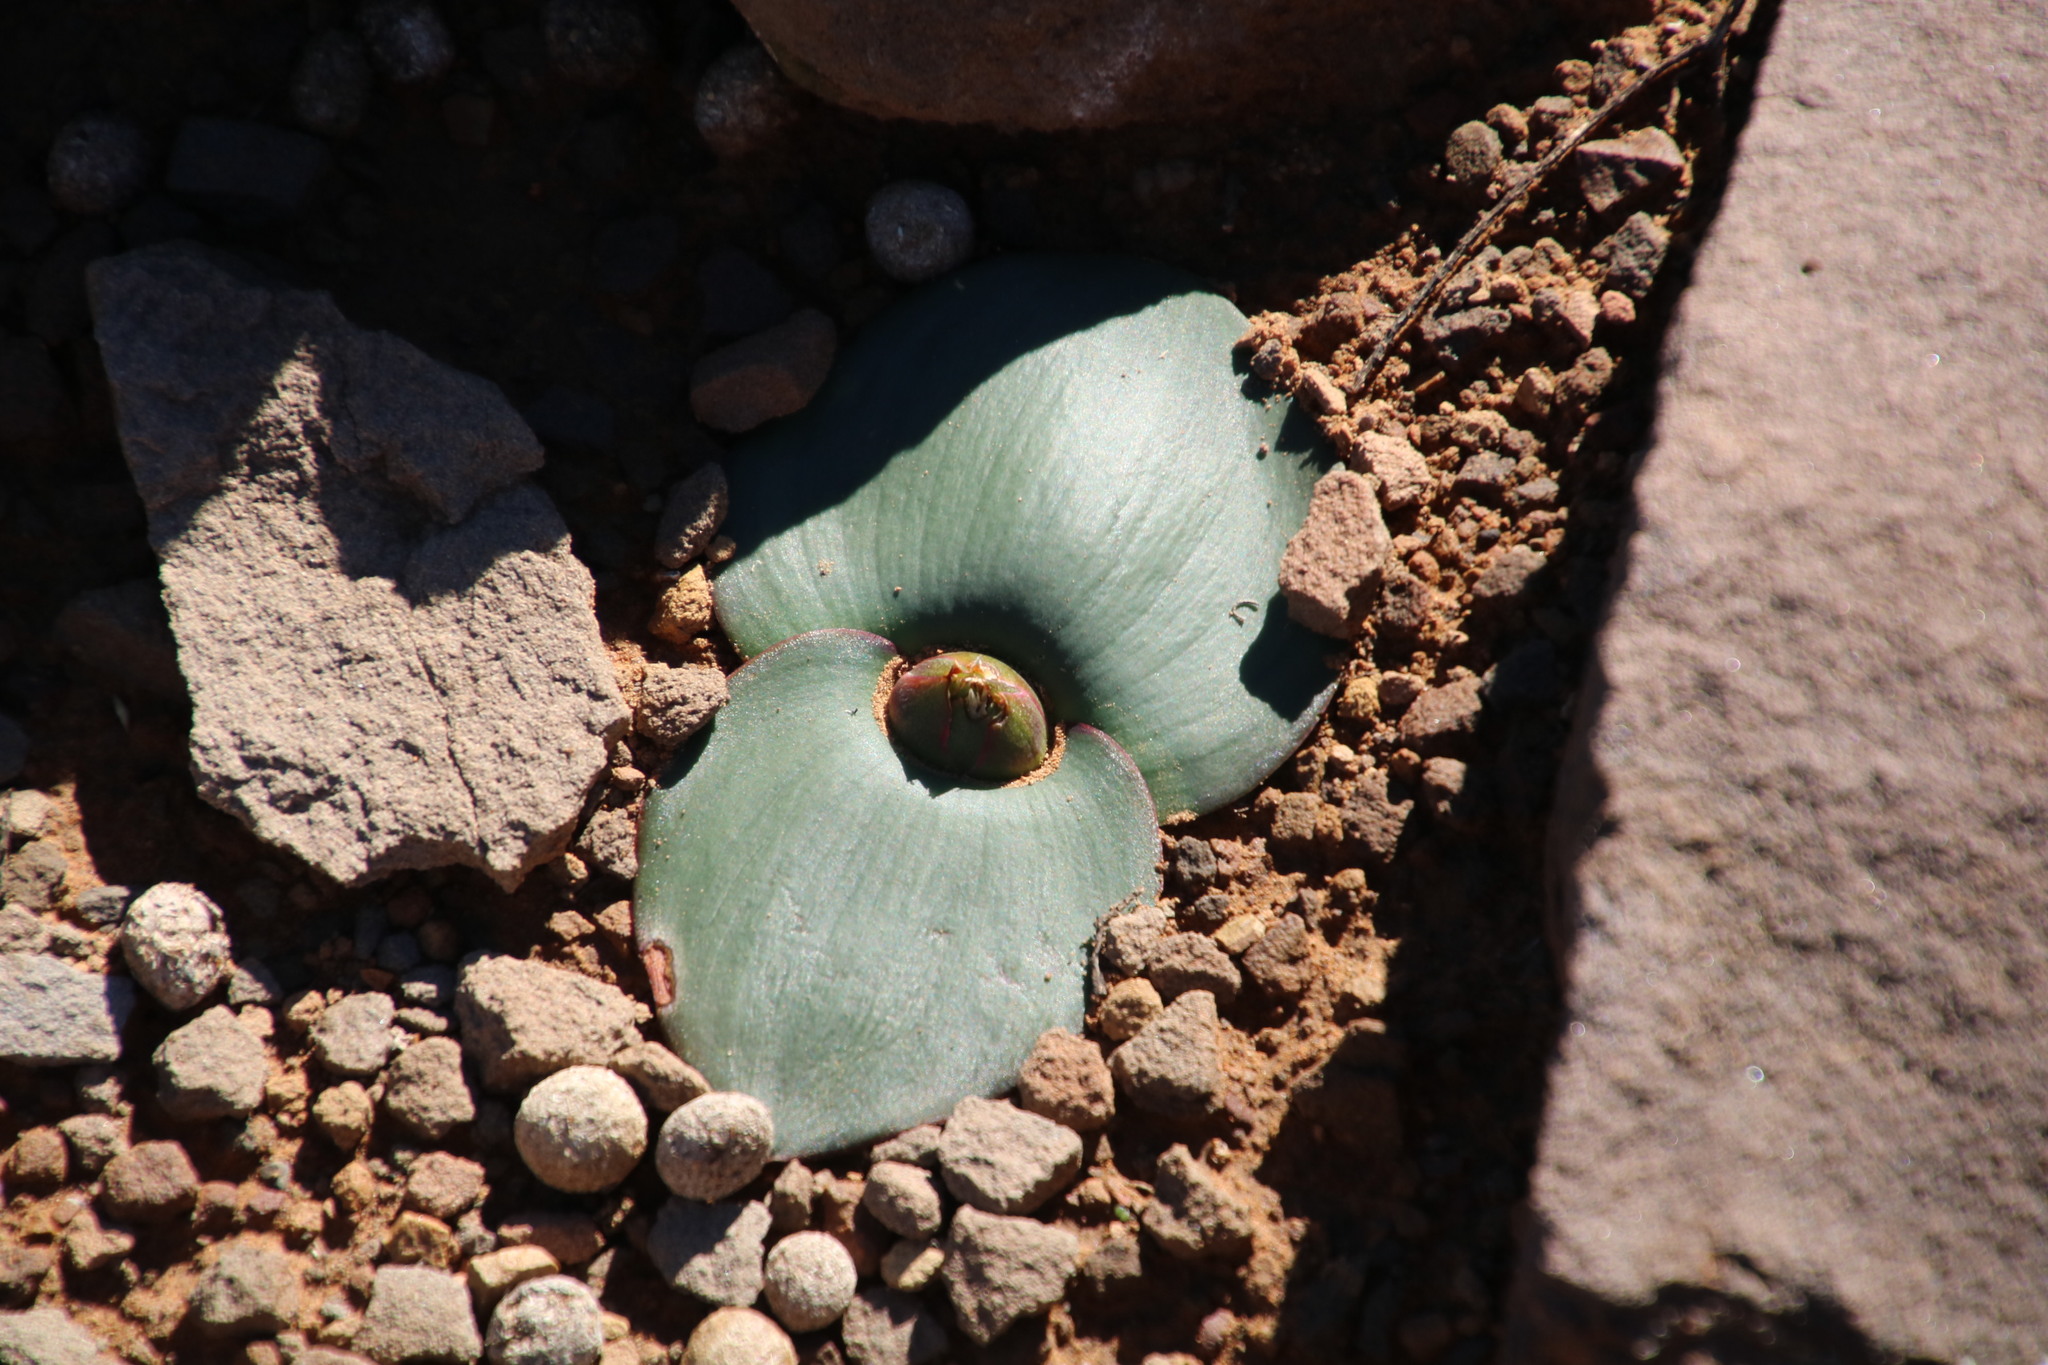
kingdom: Plantae
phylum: Tracheophyta
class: Liliopsida
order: Asparagales
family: Asparagaceae
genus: Massonia
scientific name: Massonia depressa
